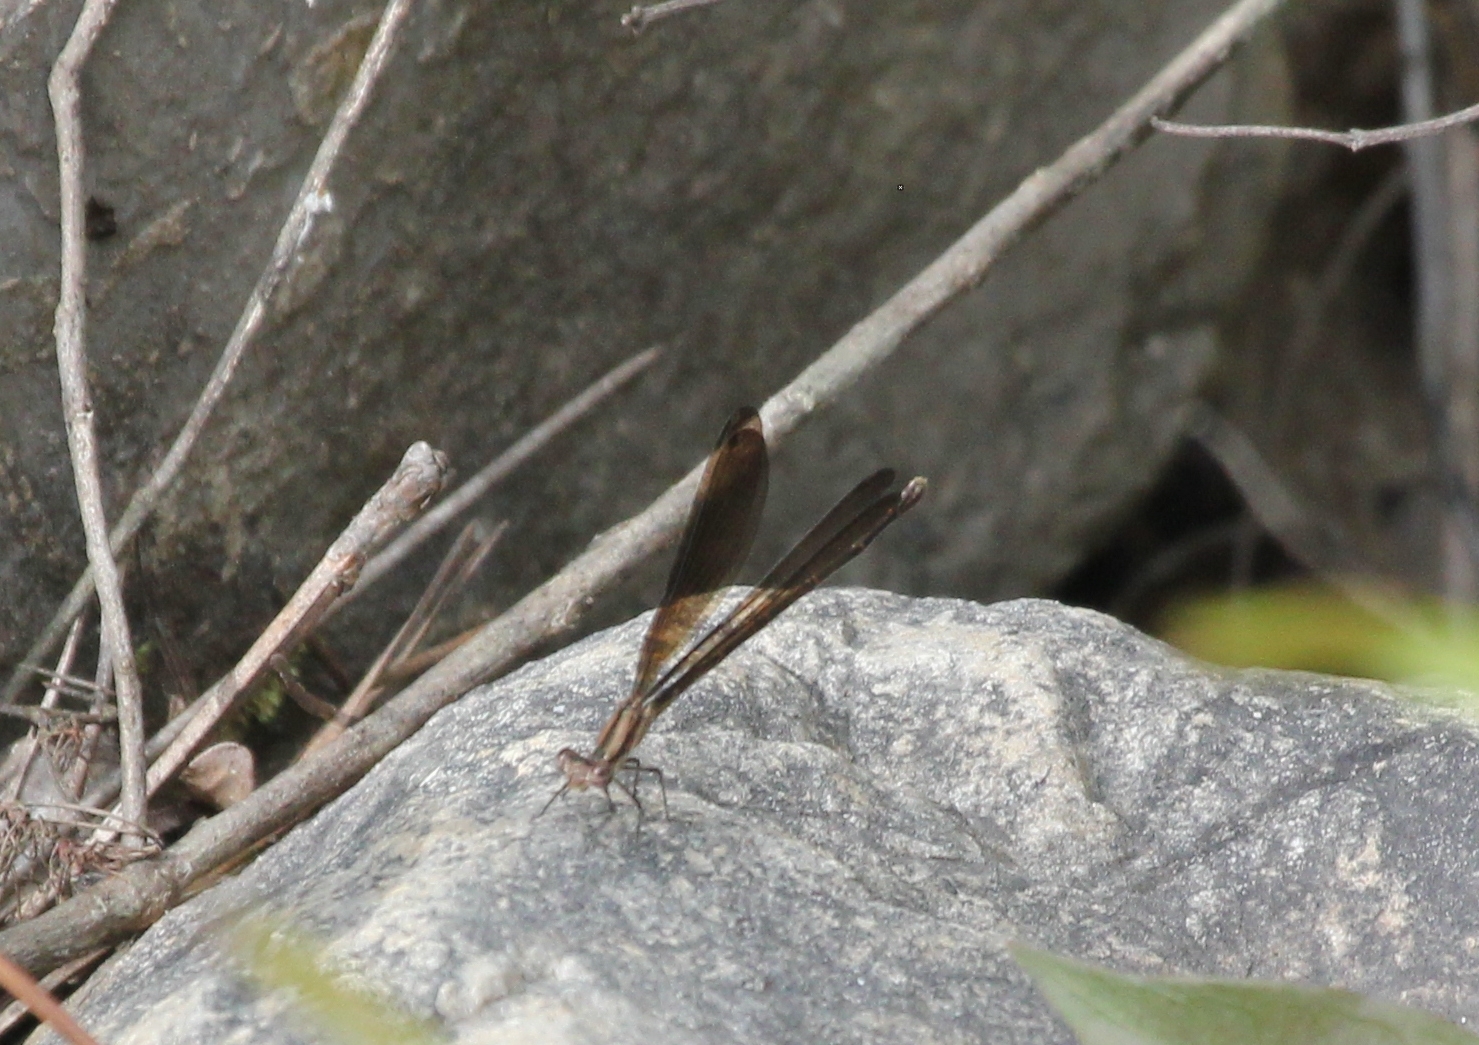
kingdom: Animalia
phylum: Arthropoda
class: Insecta
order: Odonata
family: Coenagrionidae
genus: Argia
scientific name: Argia fumipennis
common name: Variable dancer
